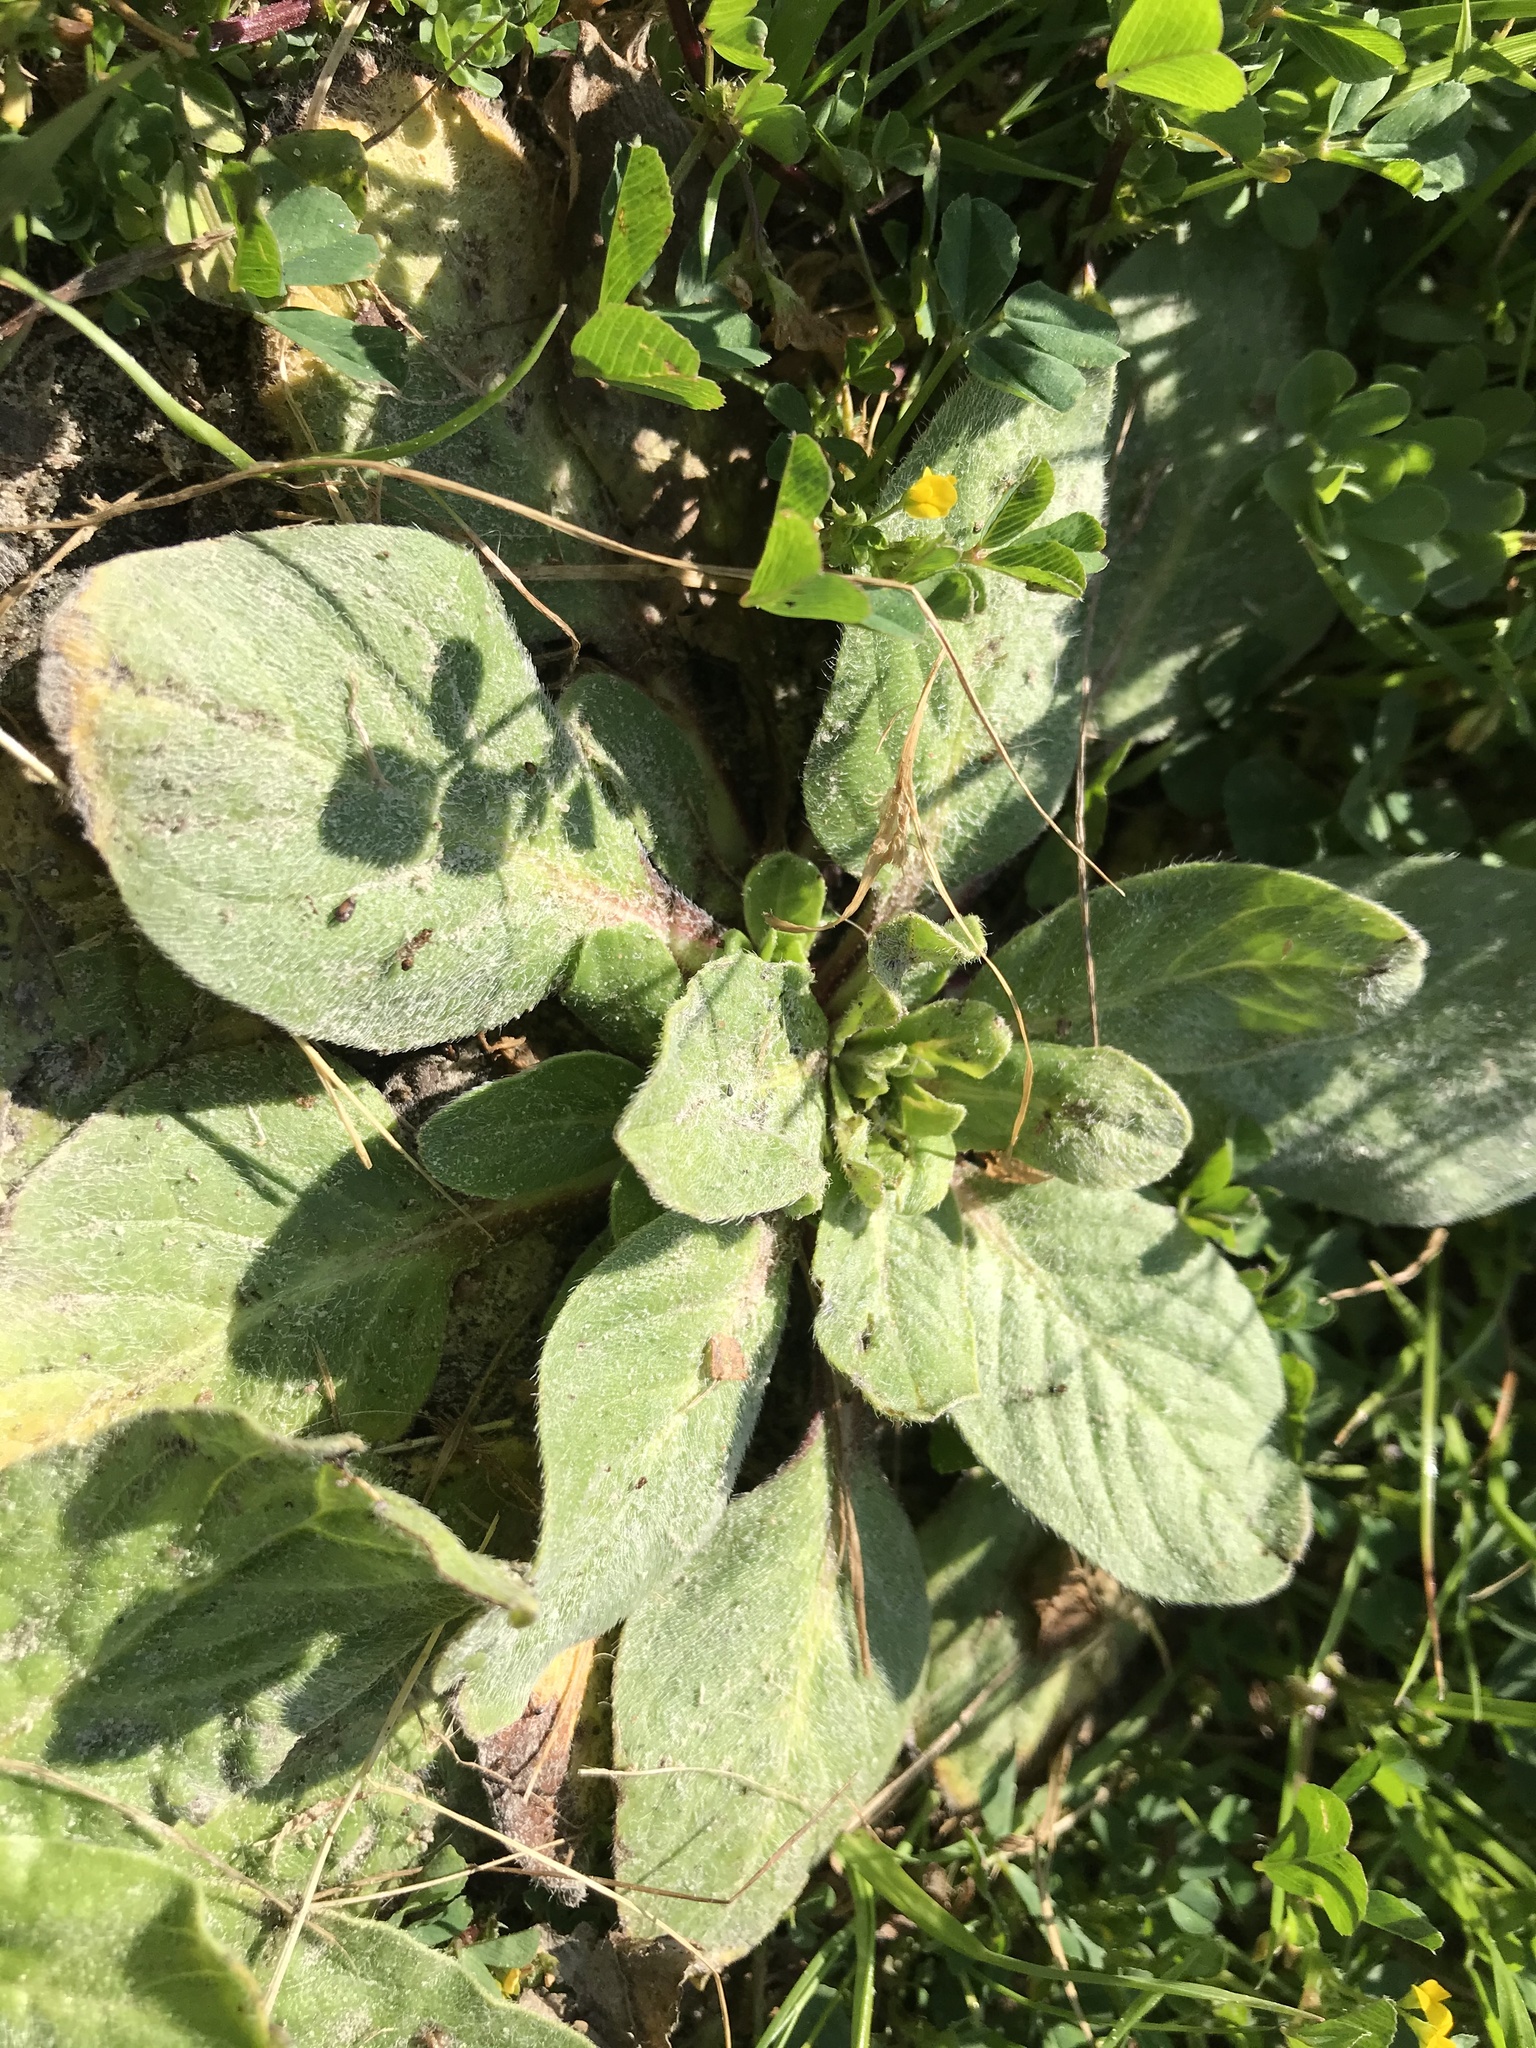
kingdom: Plantae
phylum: Tracheophyta
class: Magnoliopsida
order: Boraginales
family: Boraginaceae
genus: Echium
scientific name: Echium plantagineum
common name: Purple viper's-bugloss
